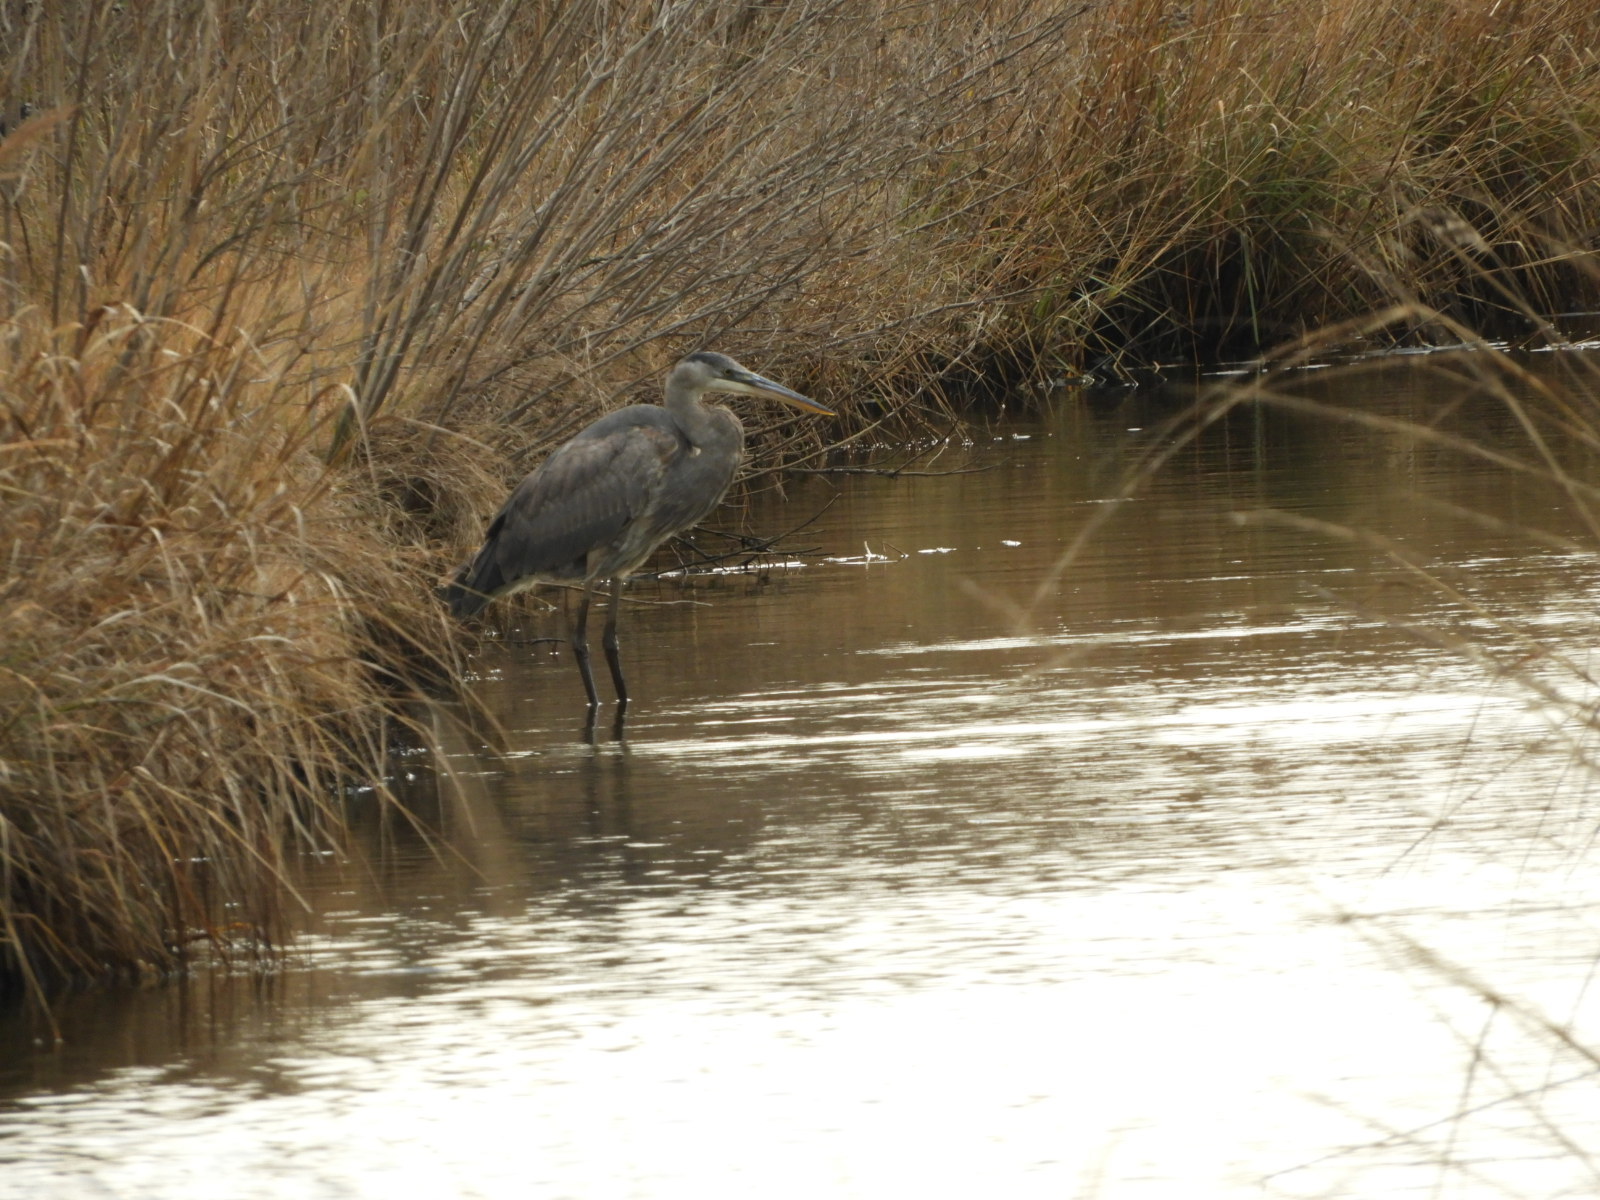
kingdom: Animalia
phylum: Chordata
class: Aves
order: Pelecaniformes
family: Ardeidae
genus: Ardea
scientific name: Ardea herodias
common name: Great blue heron
